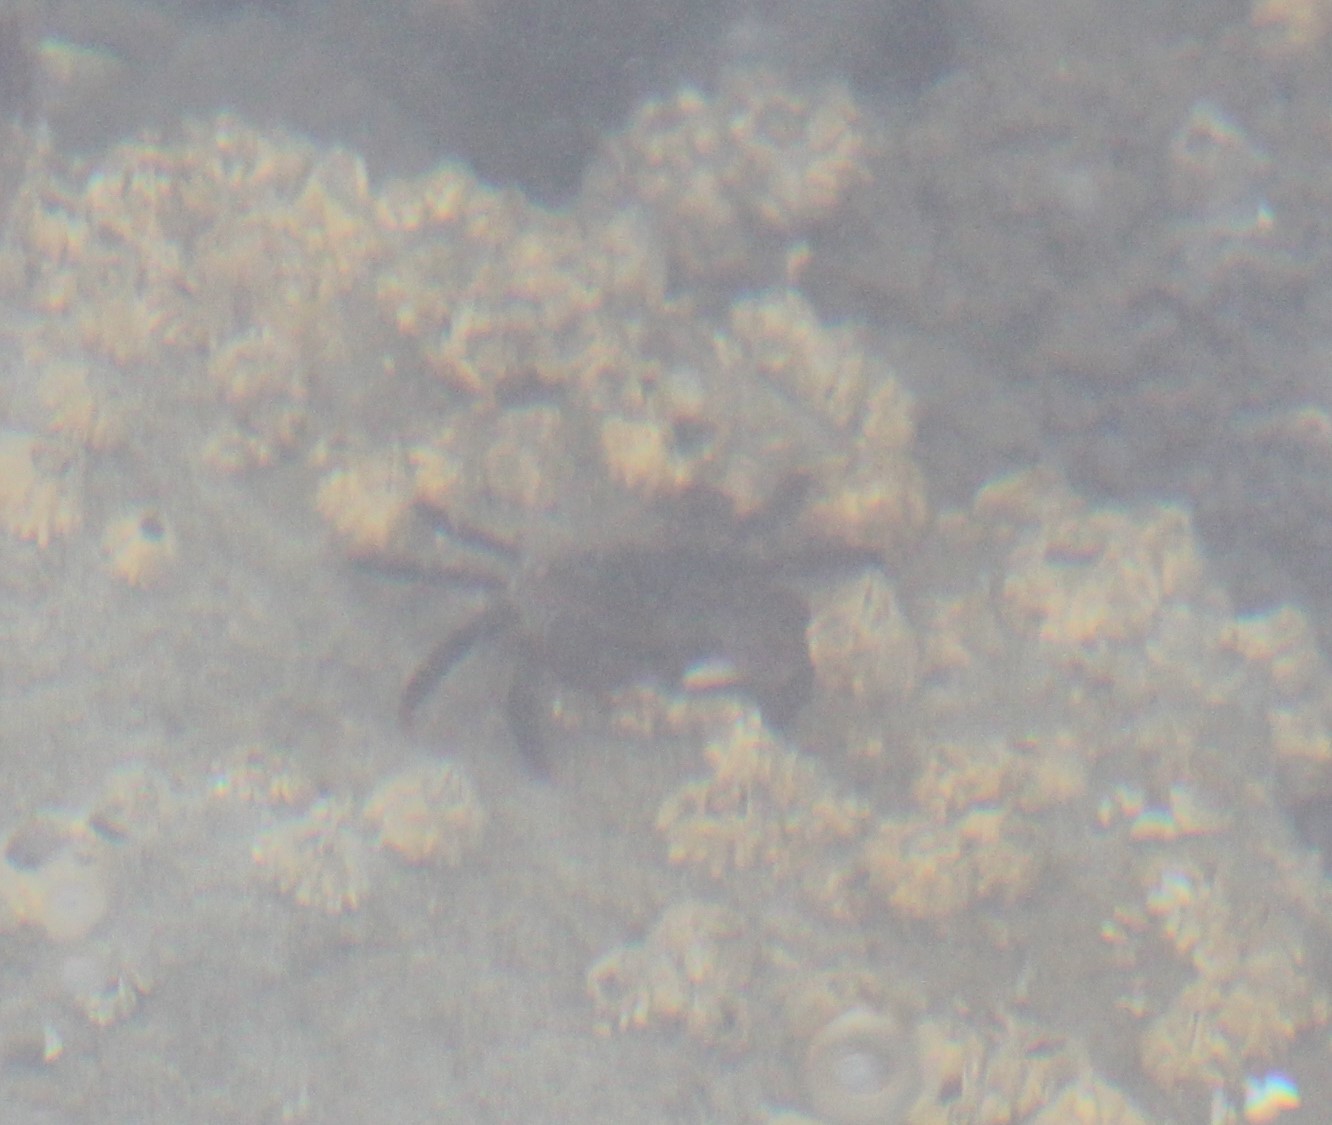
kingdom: Animalia
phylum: Arthropoda
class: Malacostraca
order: Decapoda
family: Varunidae
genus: Hemigrapsus
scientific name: Hemigrapsus
